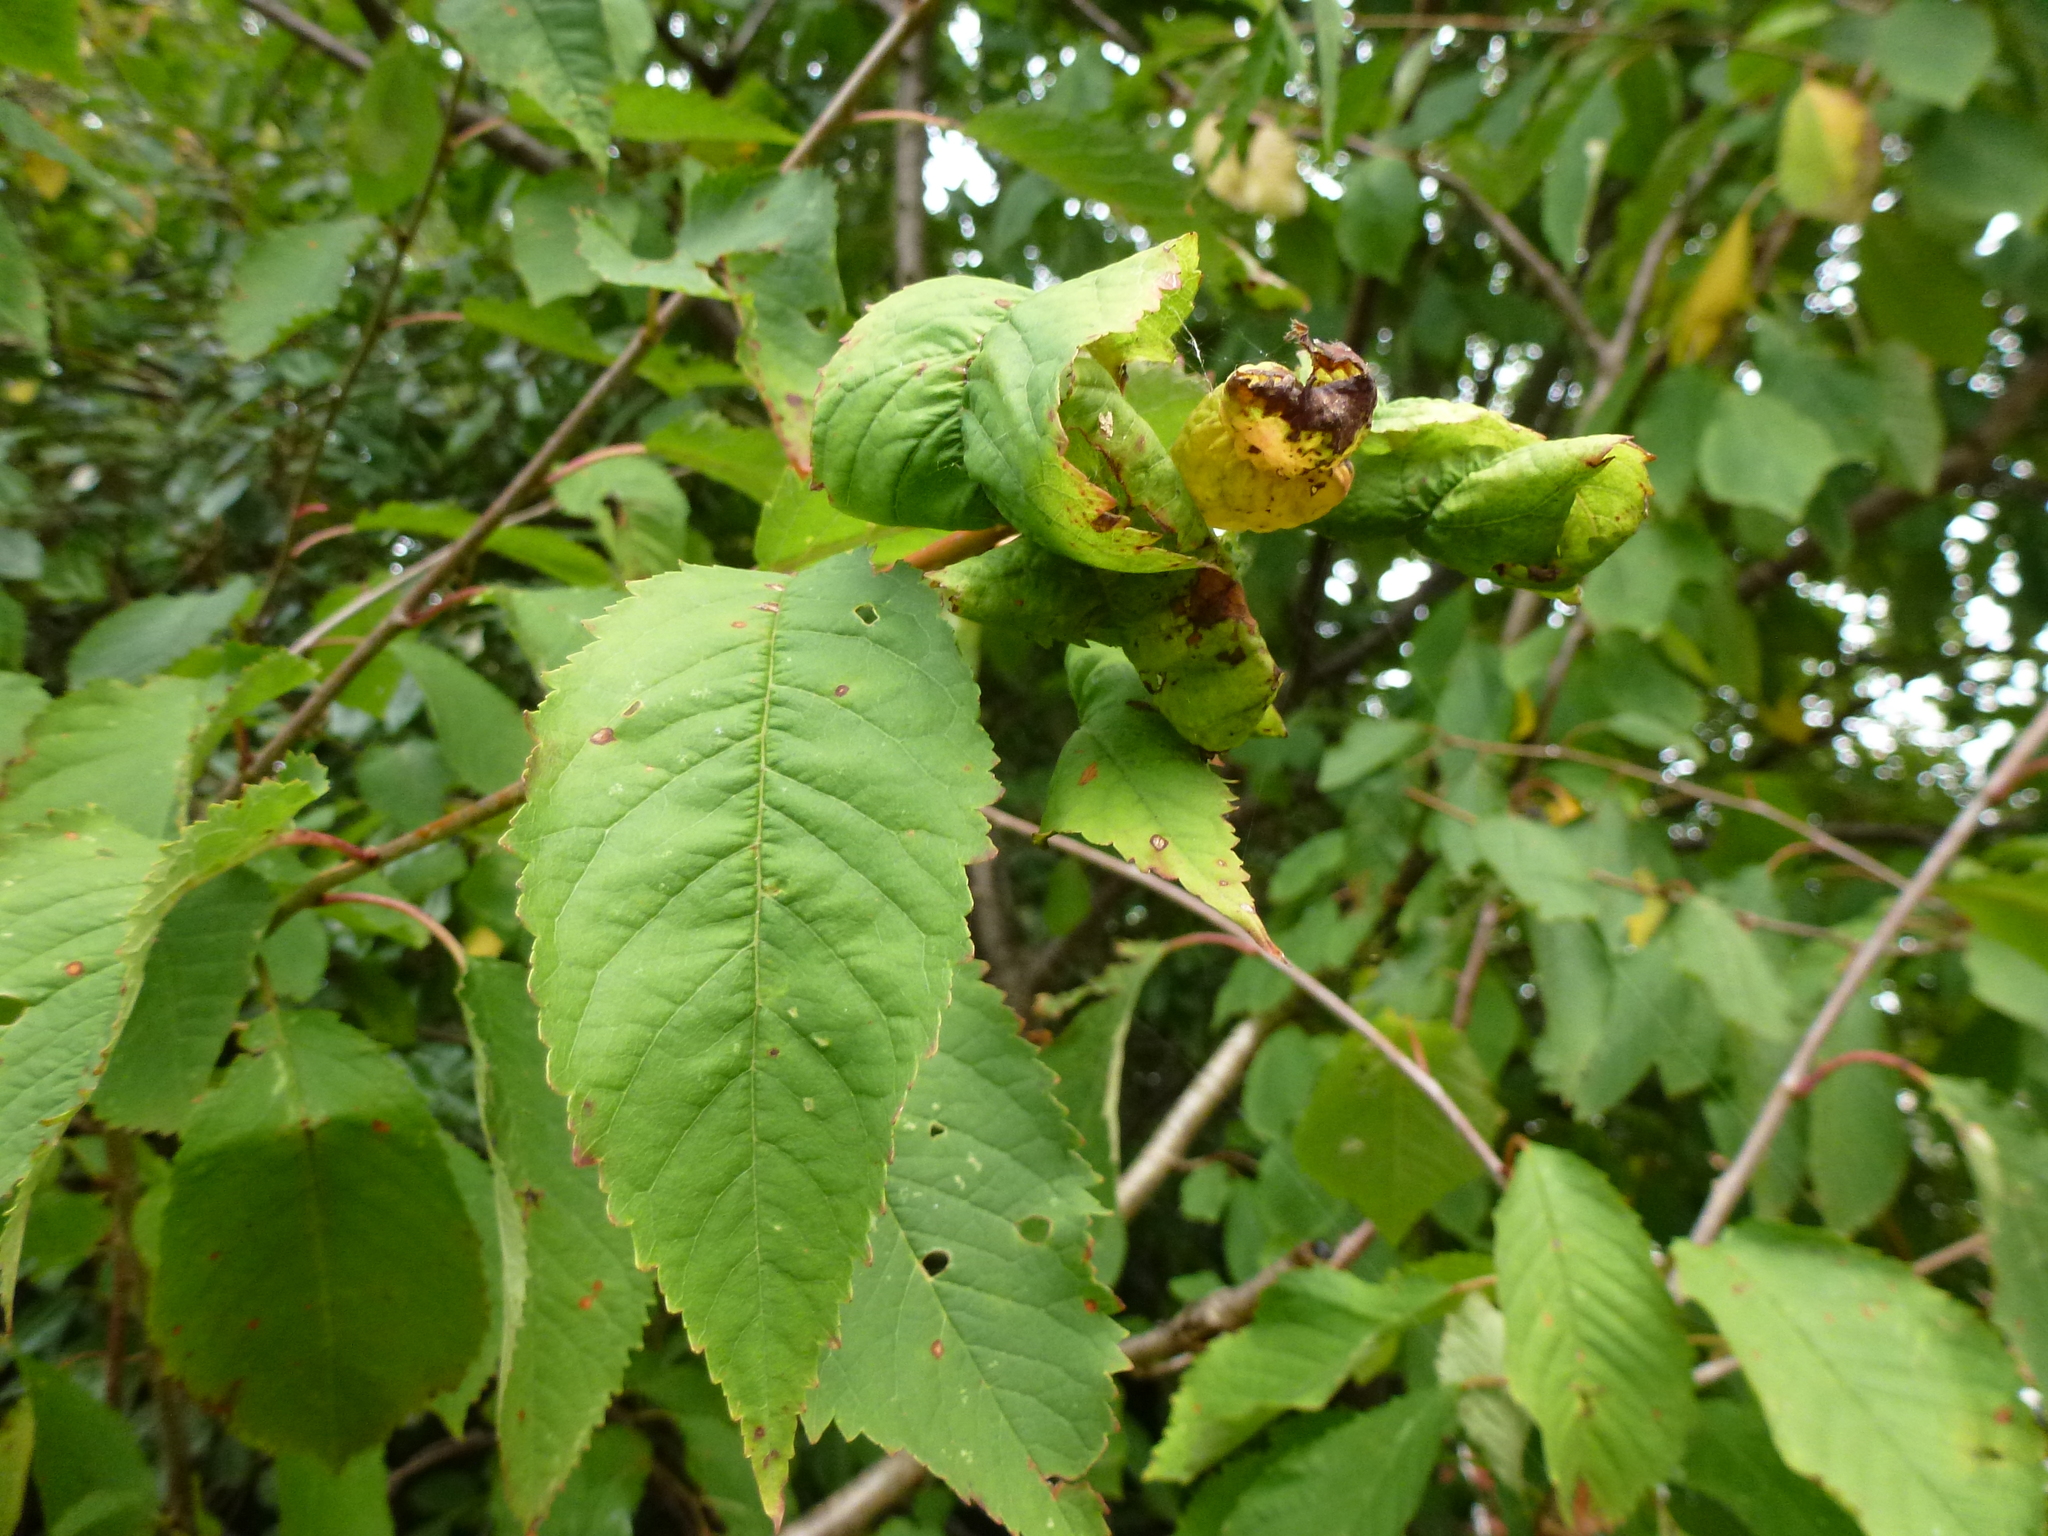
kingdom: Animalia
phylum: Arthropoda
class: Insecta
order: Hemiptera
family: Aphididae
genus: Myzus
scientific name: Myzus cerasi
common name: Black cherry aphid
